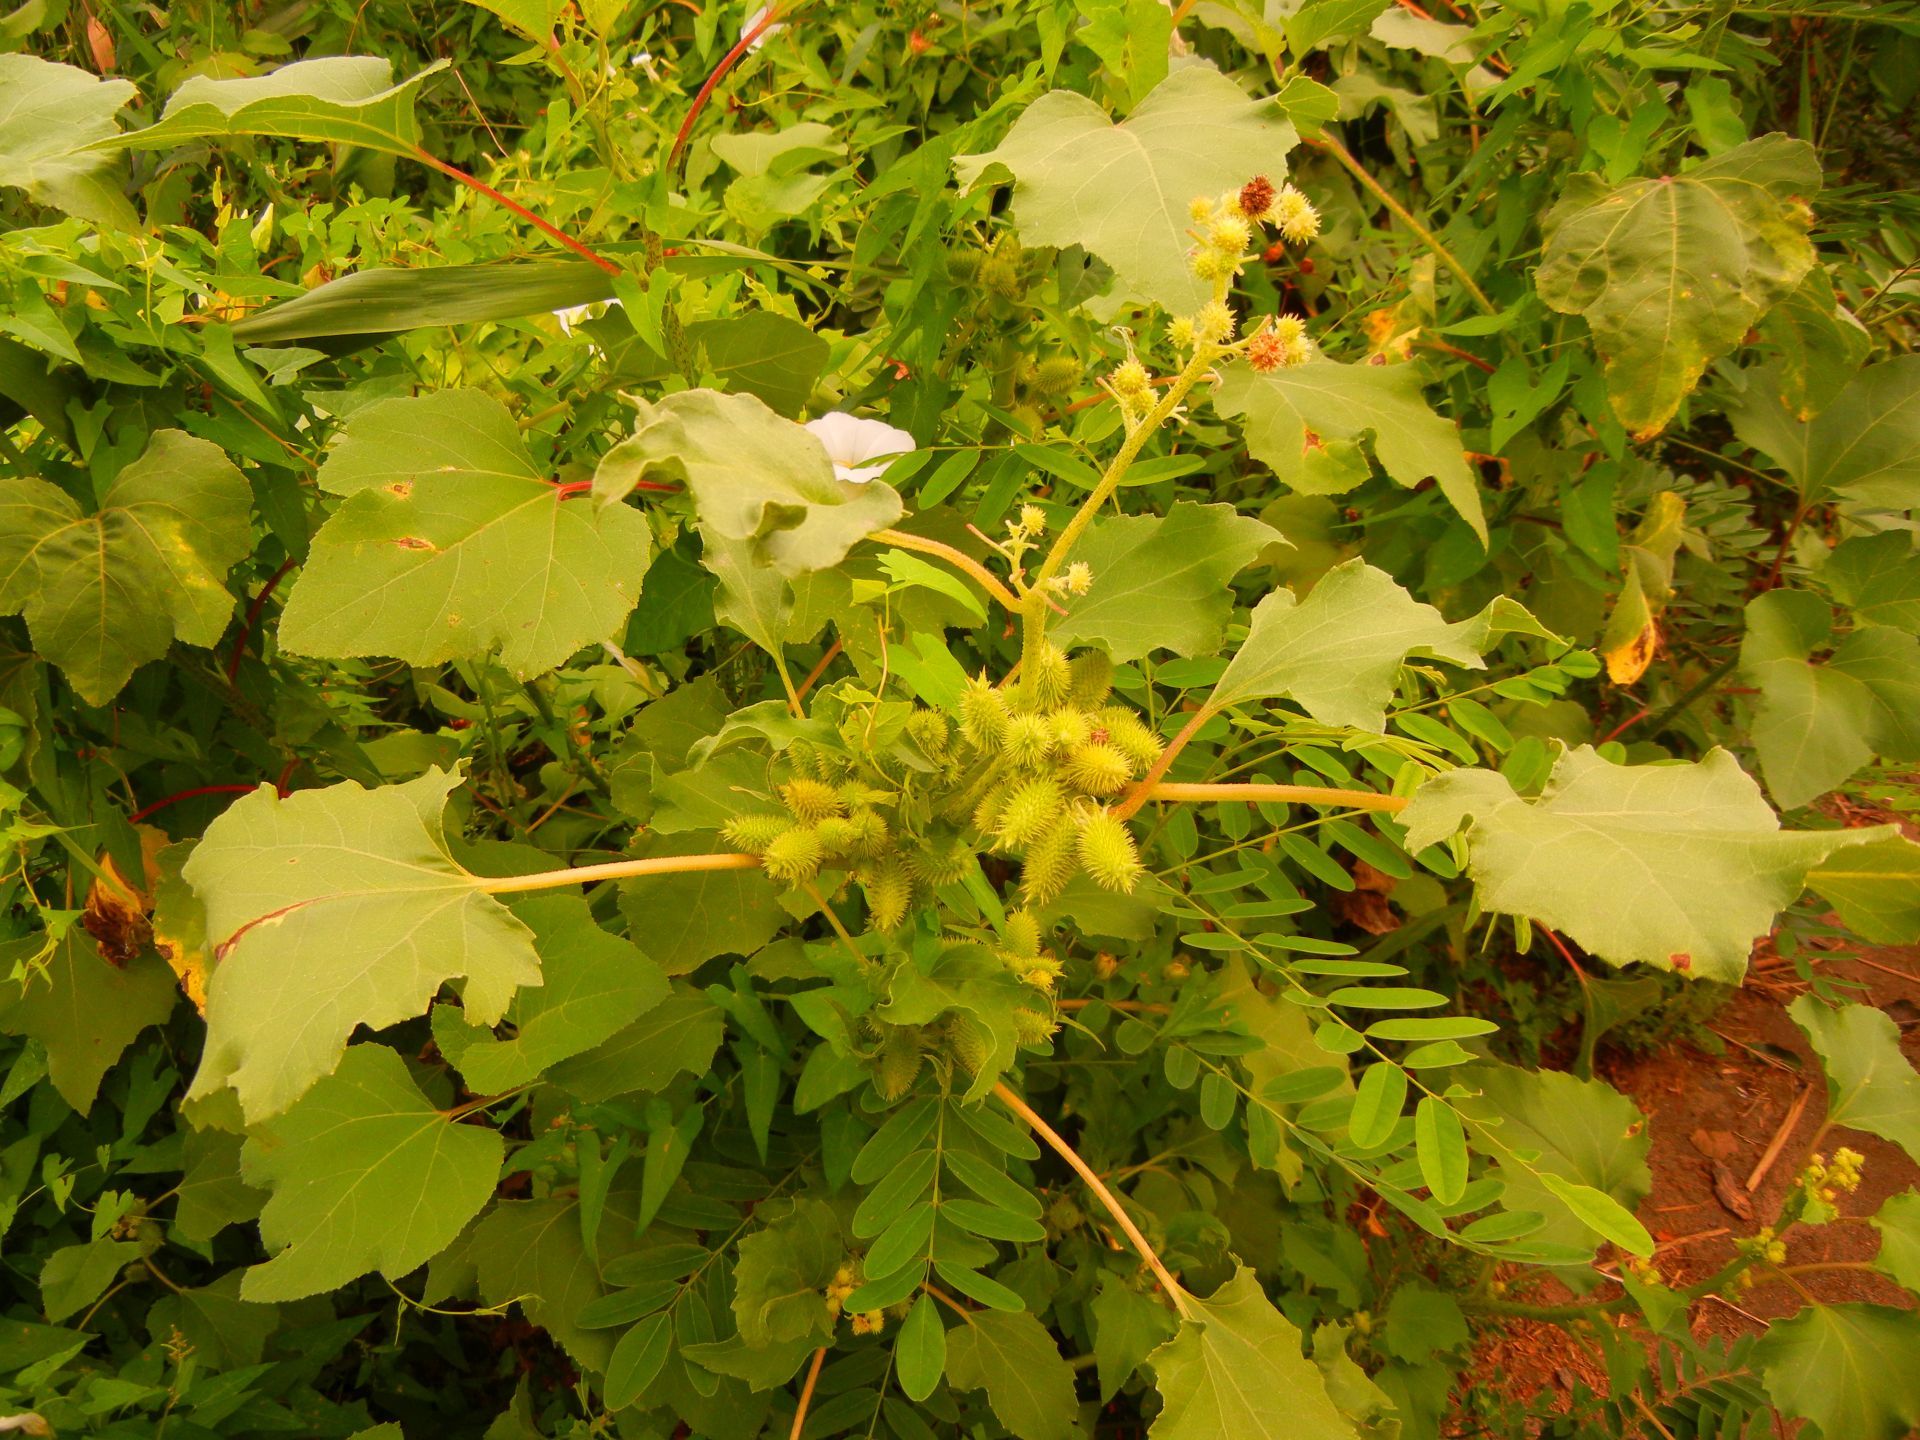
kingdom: Plantae
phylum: Tracheophyta
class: Magnoliopsida
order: Asterales
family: Asteraceae
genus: Xanthium
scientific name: Xanthium strumarium
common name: Rough cocklebur
